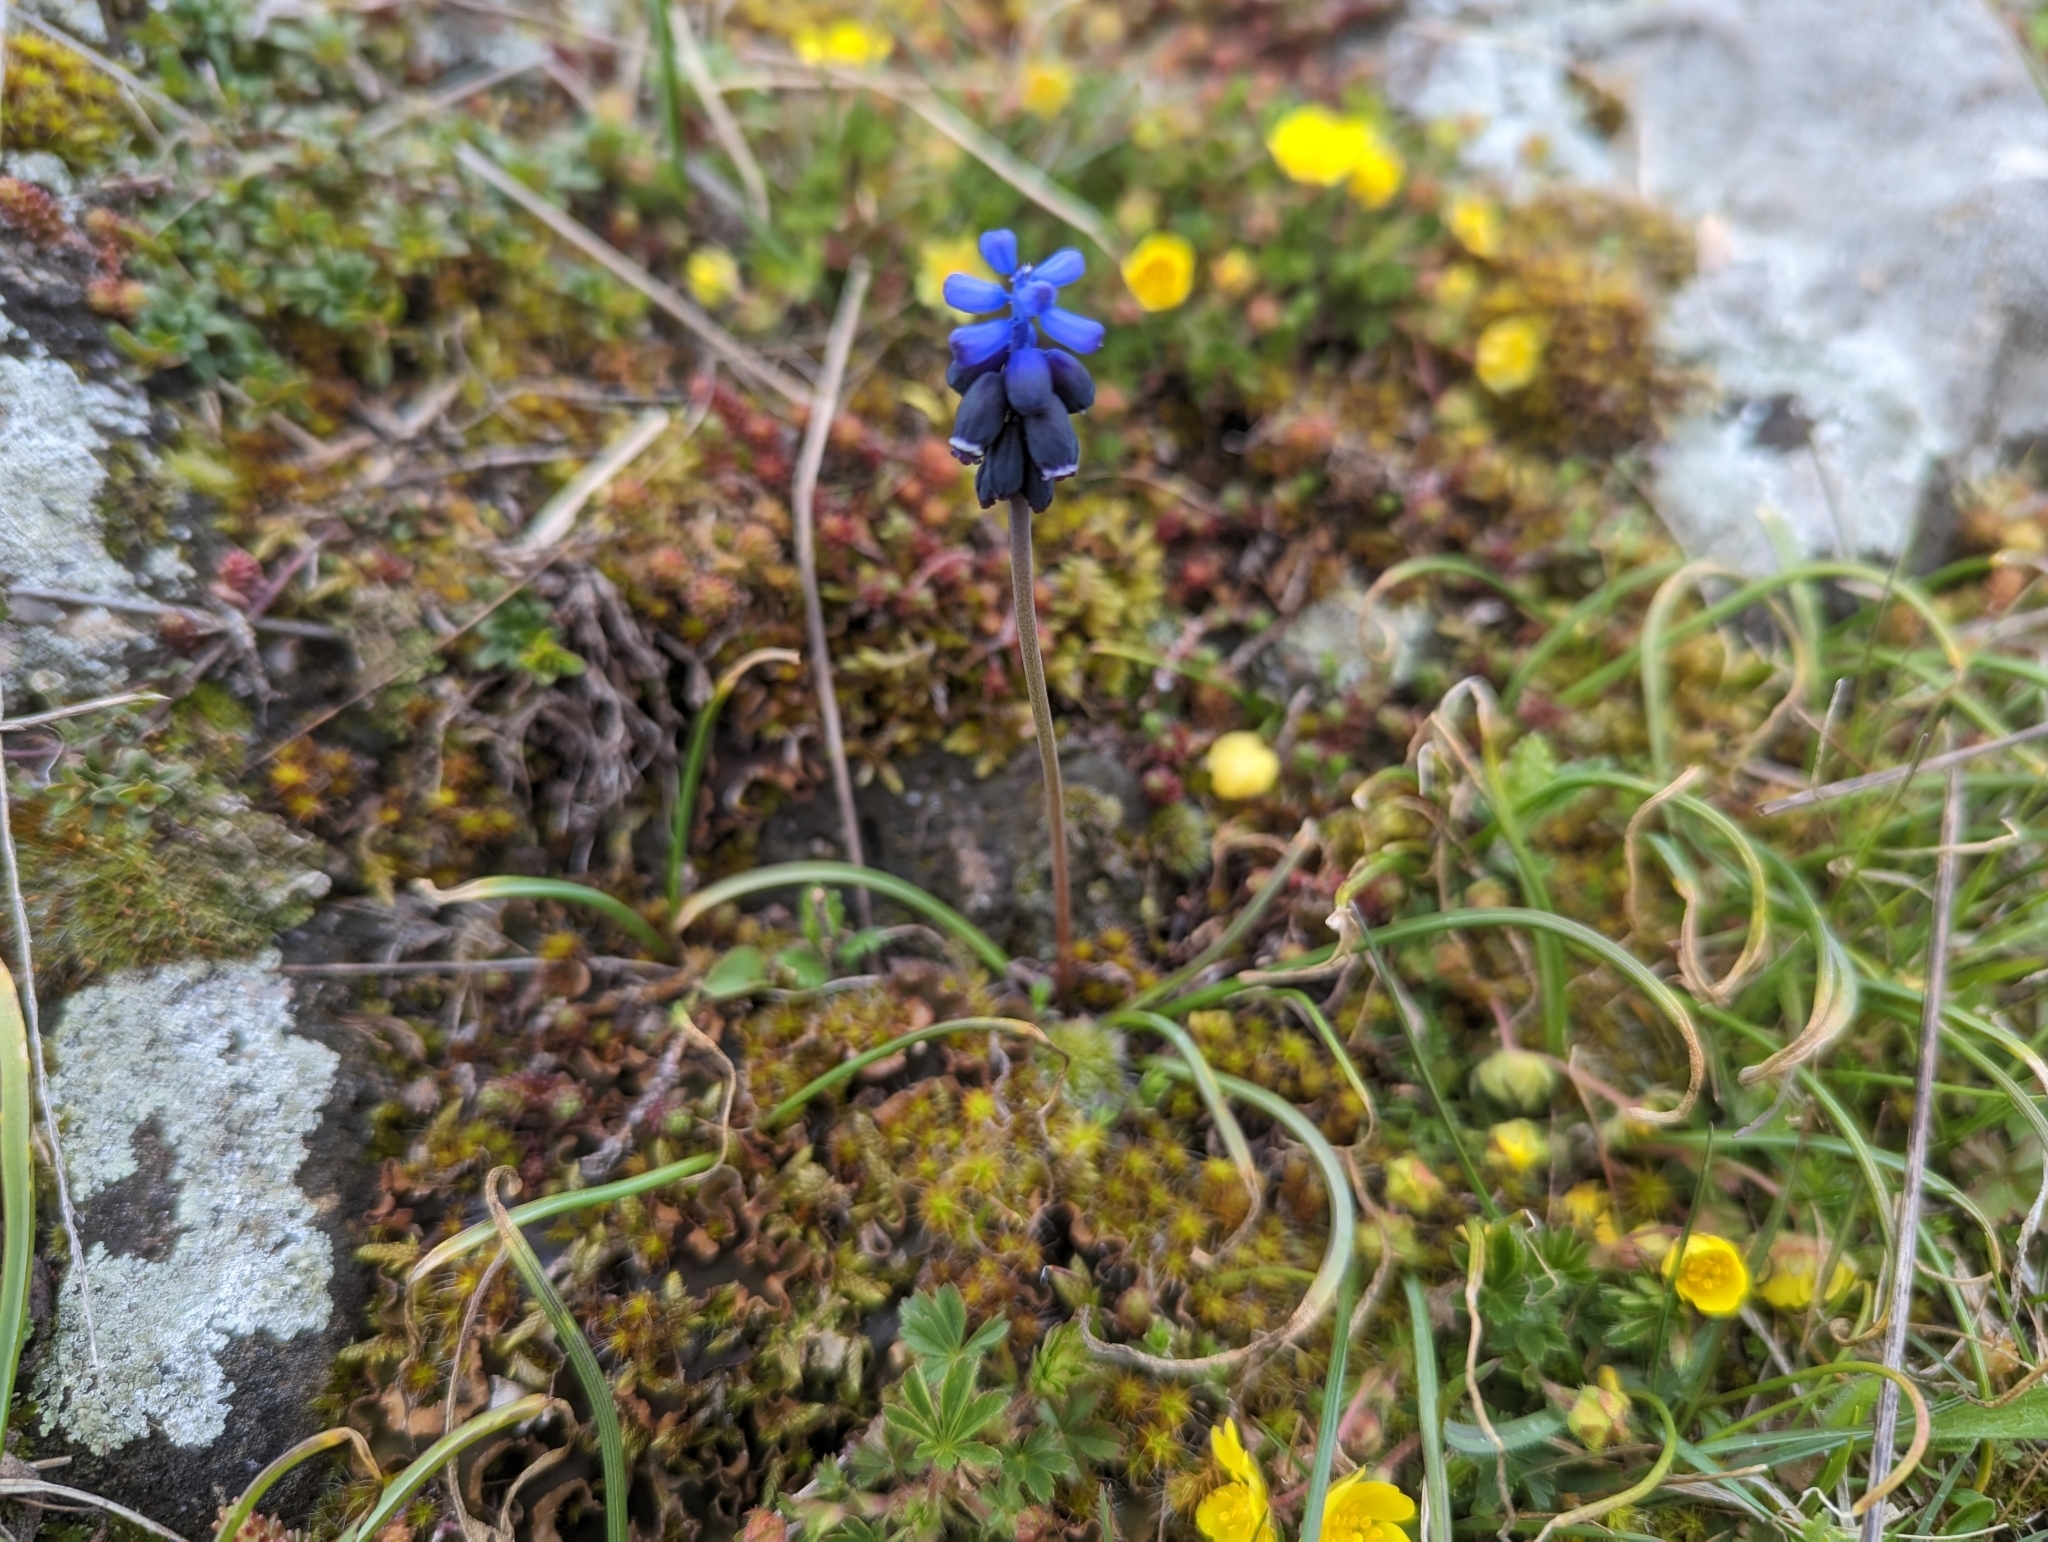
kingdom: Plantae
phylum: Tracheophyta
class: Liliopsida
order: Asparagales
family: Asparagaceae
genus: Muscari
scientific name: Muscari neglectum
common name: Grape-hyacinth
